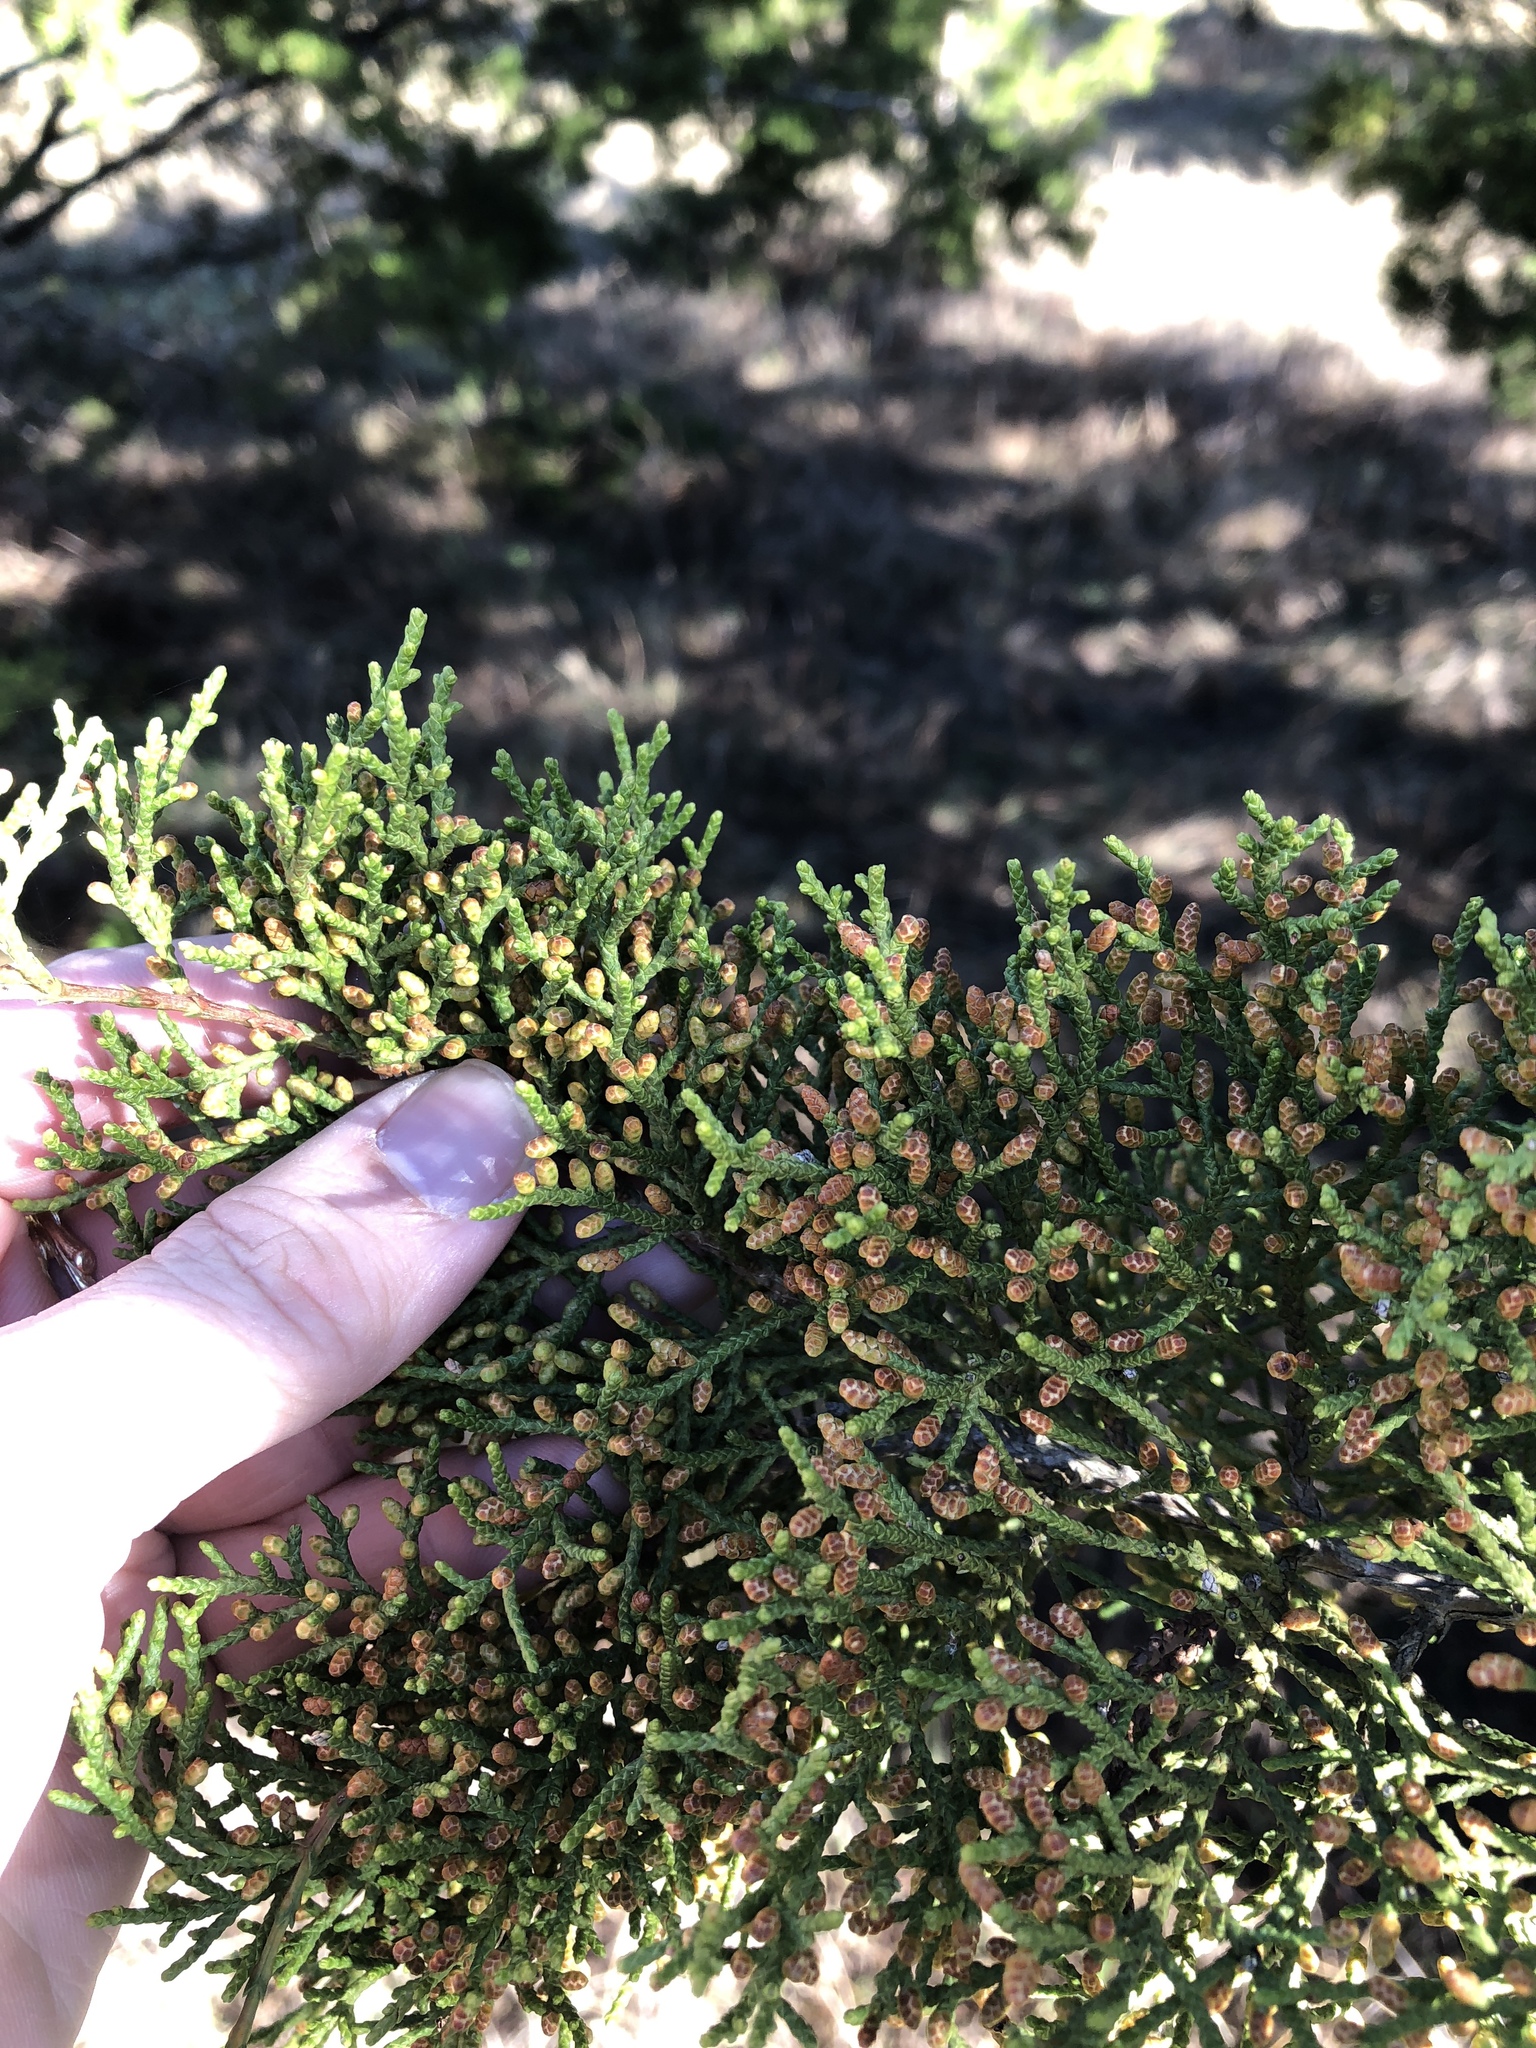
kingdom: Plantae
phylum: Tracheophyta
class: Pinopsida
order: Pinales
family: Cupressaceae
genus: Juniperus
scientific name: Juniperus ashei
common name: Mexican juniper
